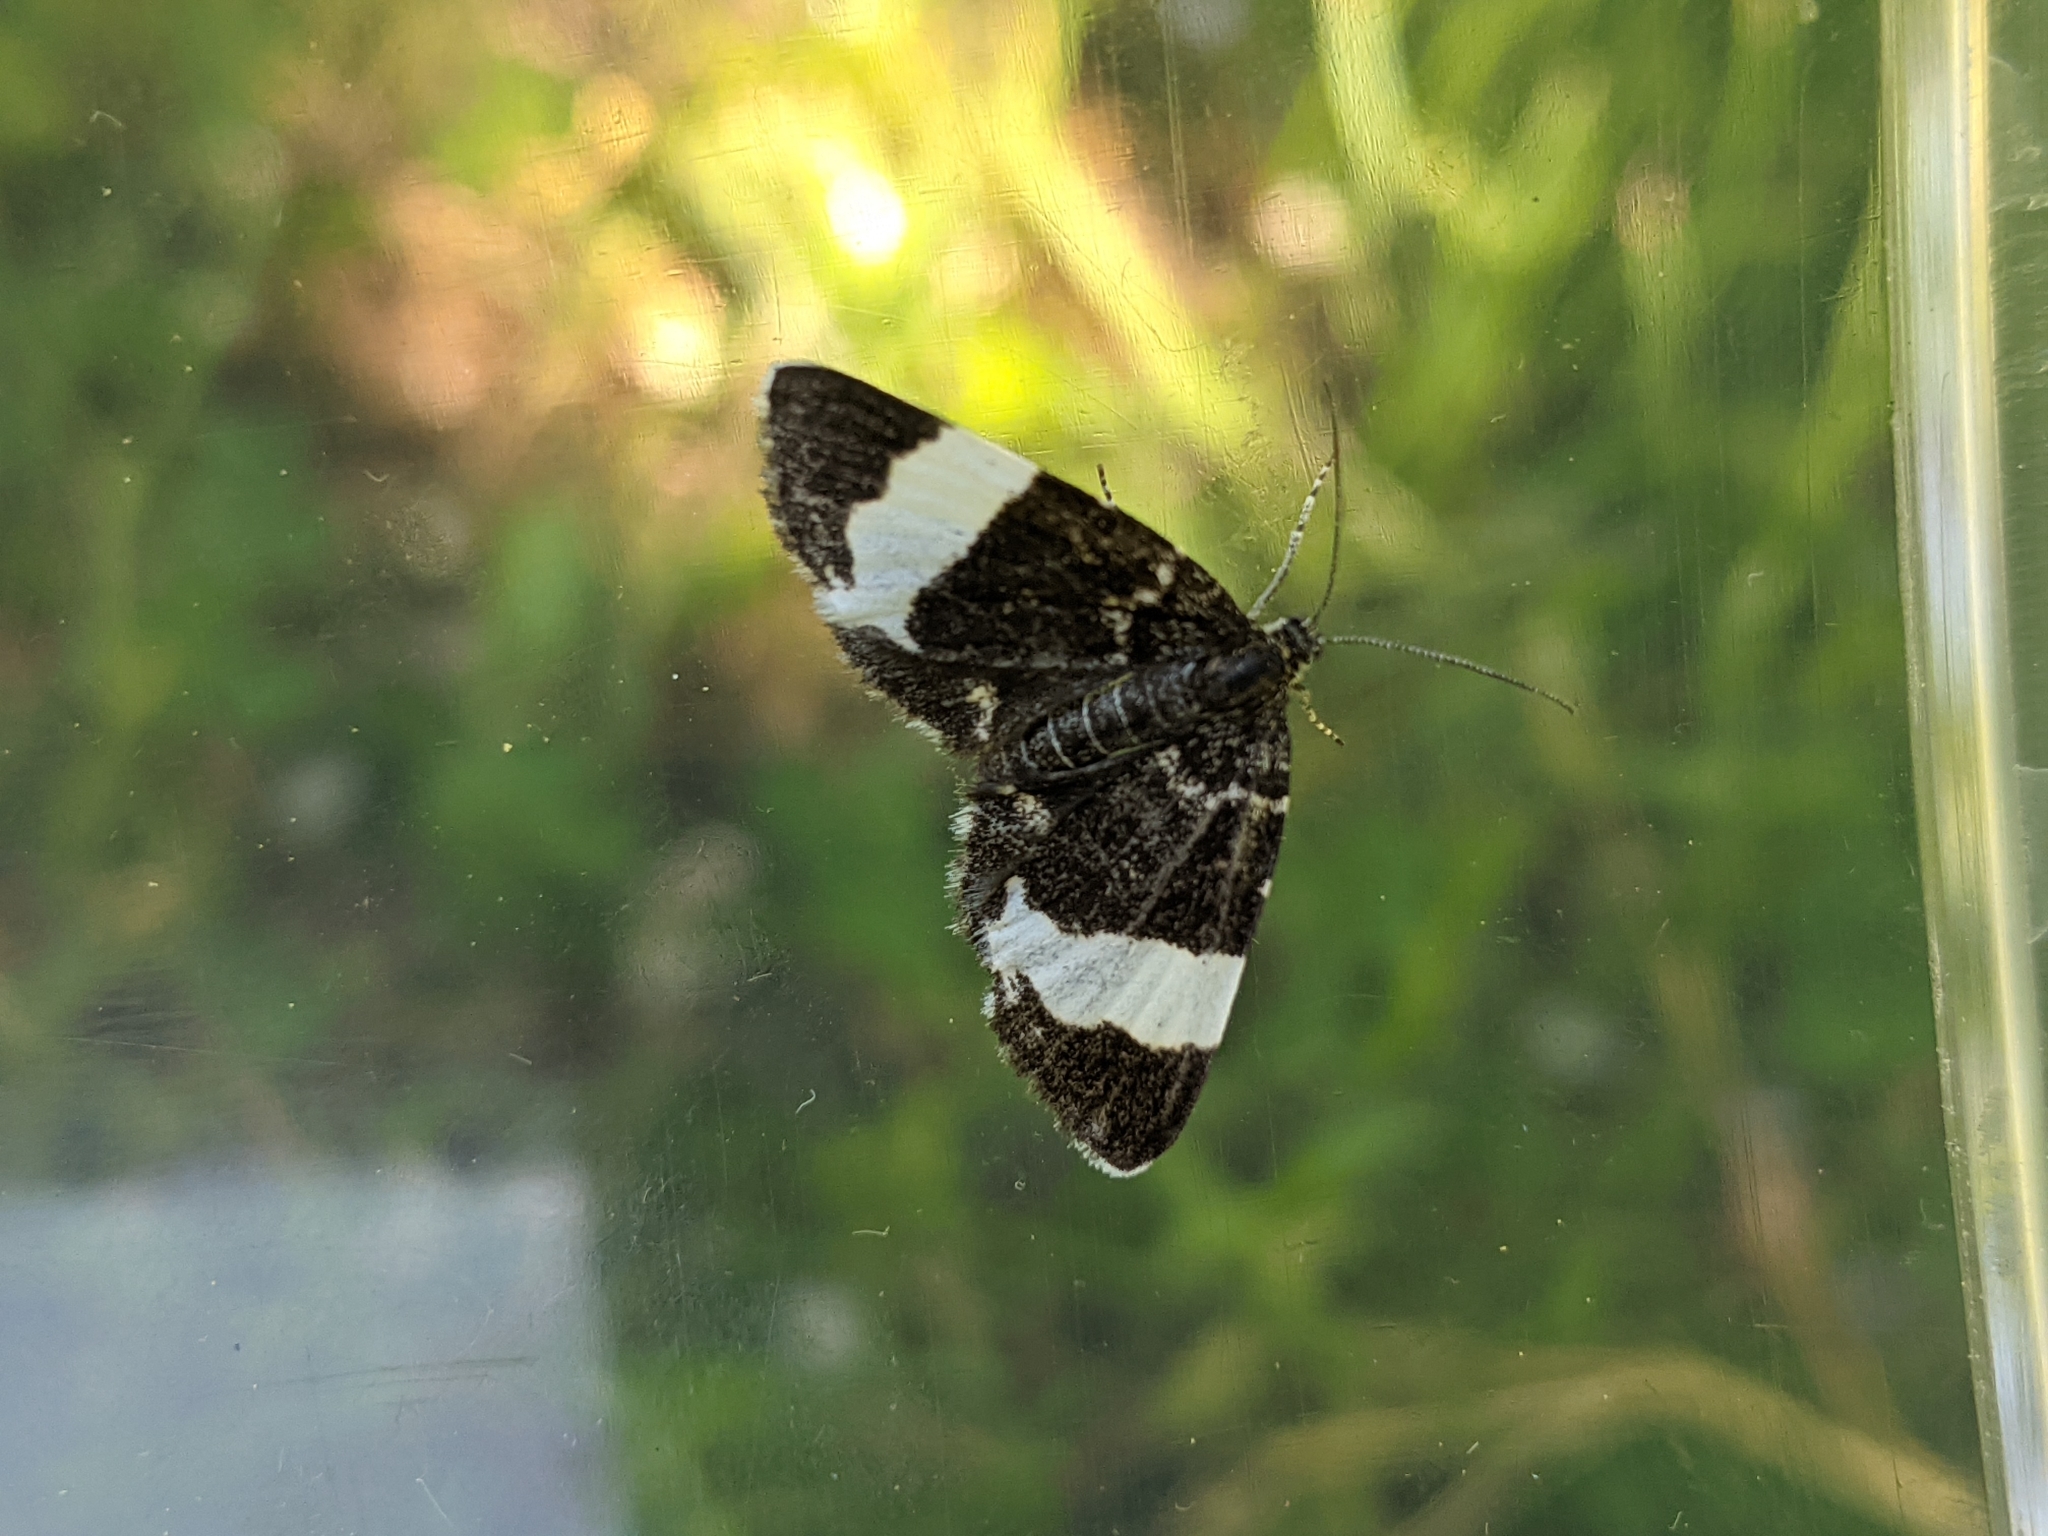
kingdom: Animalia
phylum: Arthropoda
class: Insecta
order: Lepidoptera
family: Geometridae
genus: Trichodezia
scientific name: Trichodezia albovittata
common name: White striped black
